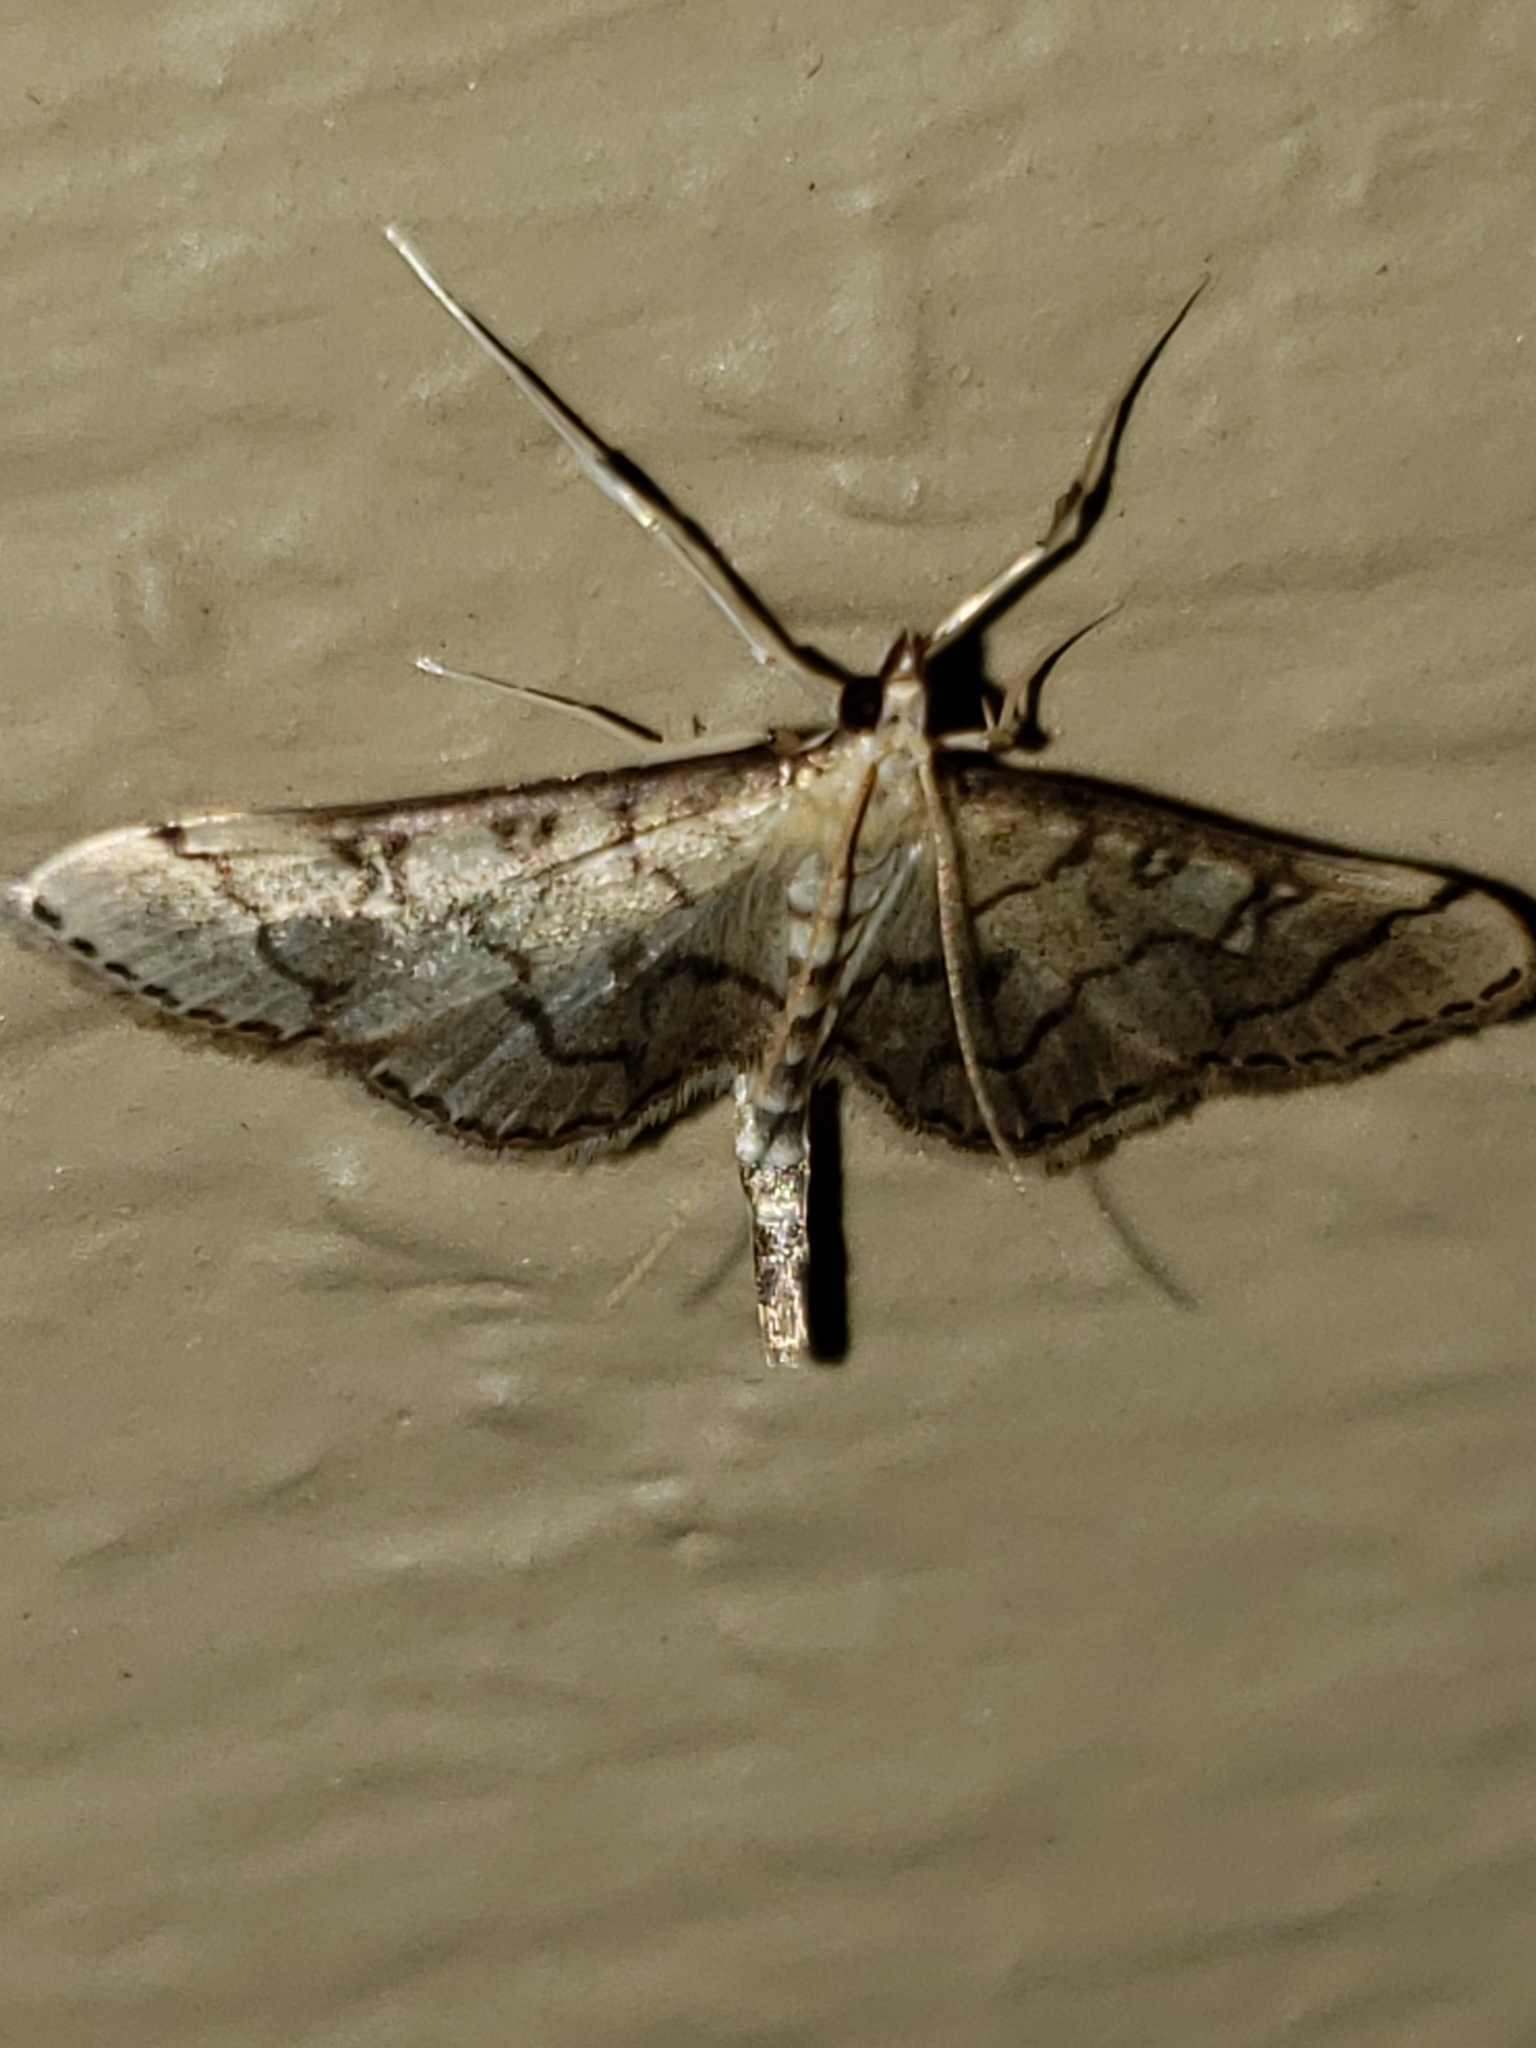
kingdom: Animalia
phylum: Arthropoda
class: Insecta
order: Lepidoptera
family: Crambidae
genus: Lamprosema
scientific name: Lamprosema Blepharomastix ranalis
